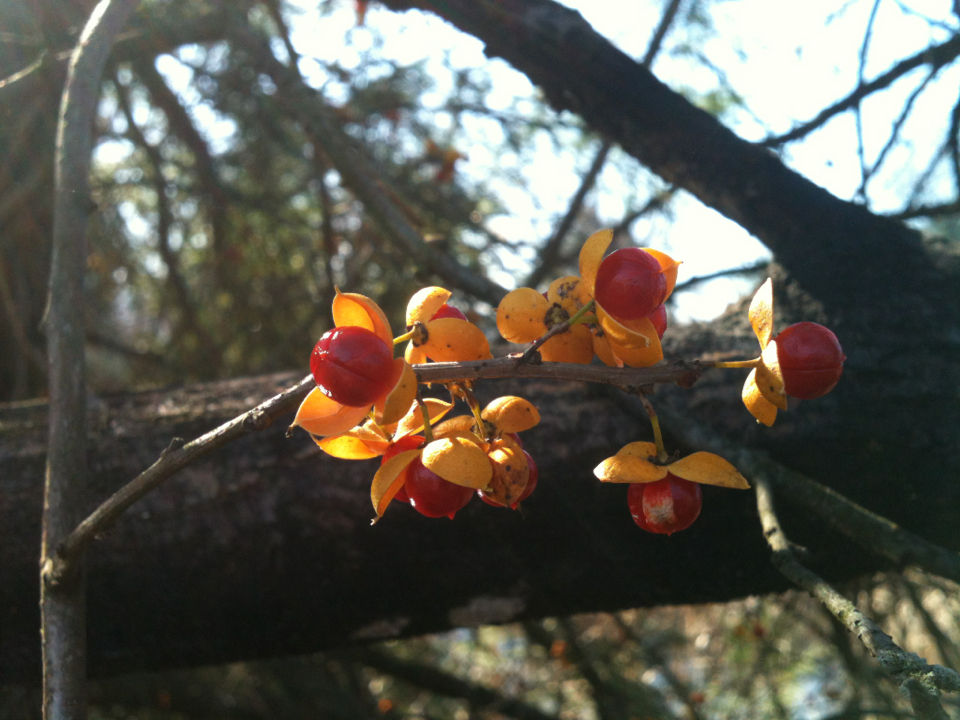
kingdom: Plantae
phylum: Tracheophyta
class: Magnoliopsida
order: Celastrales
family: Celastraceae
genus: Celastrus
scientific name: Celastrus orbiculatus
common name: Oriental bittersweet
